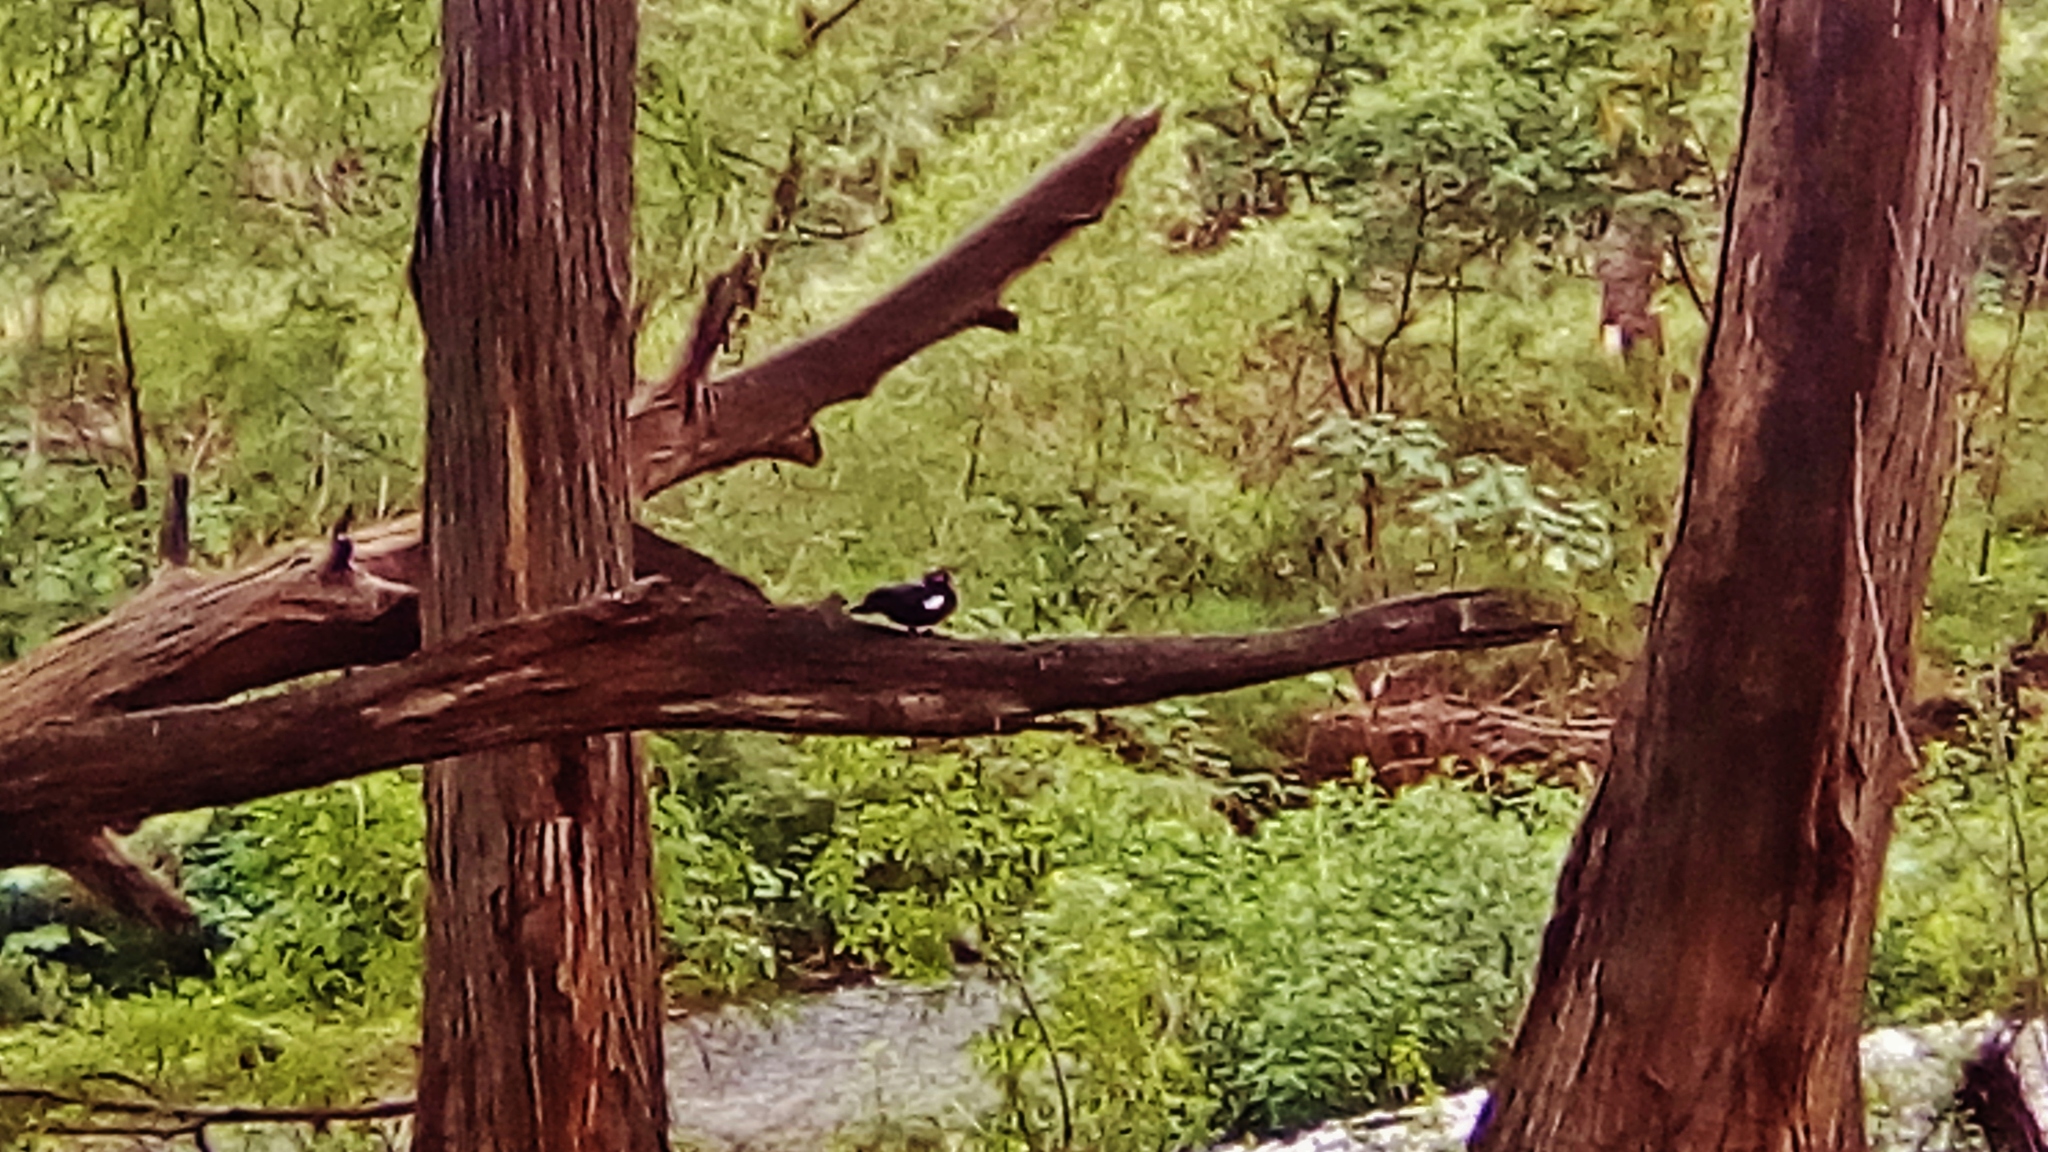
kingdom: Animalia
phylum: Chordata
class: Aves
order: Anseriformes
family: Anatidae
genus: Cairina
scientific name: Cairina moschata
